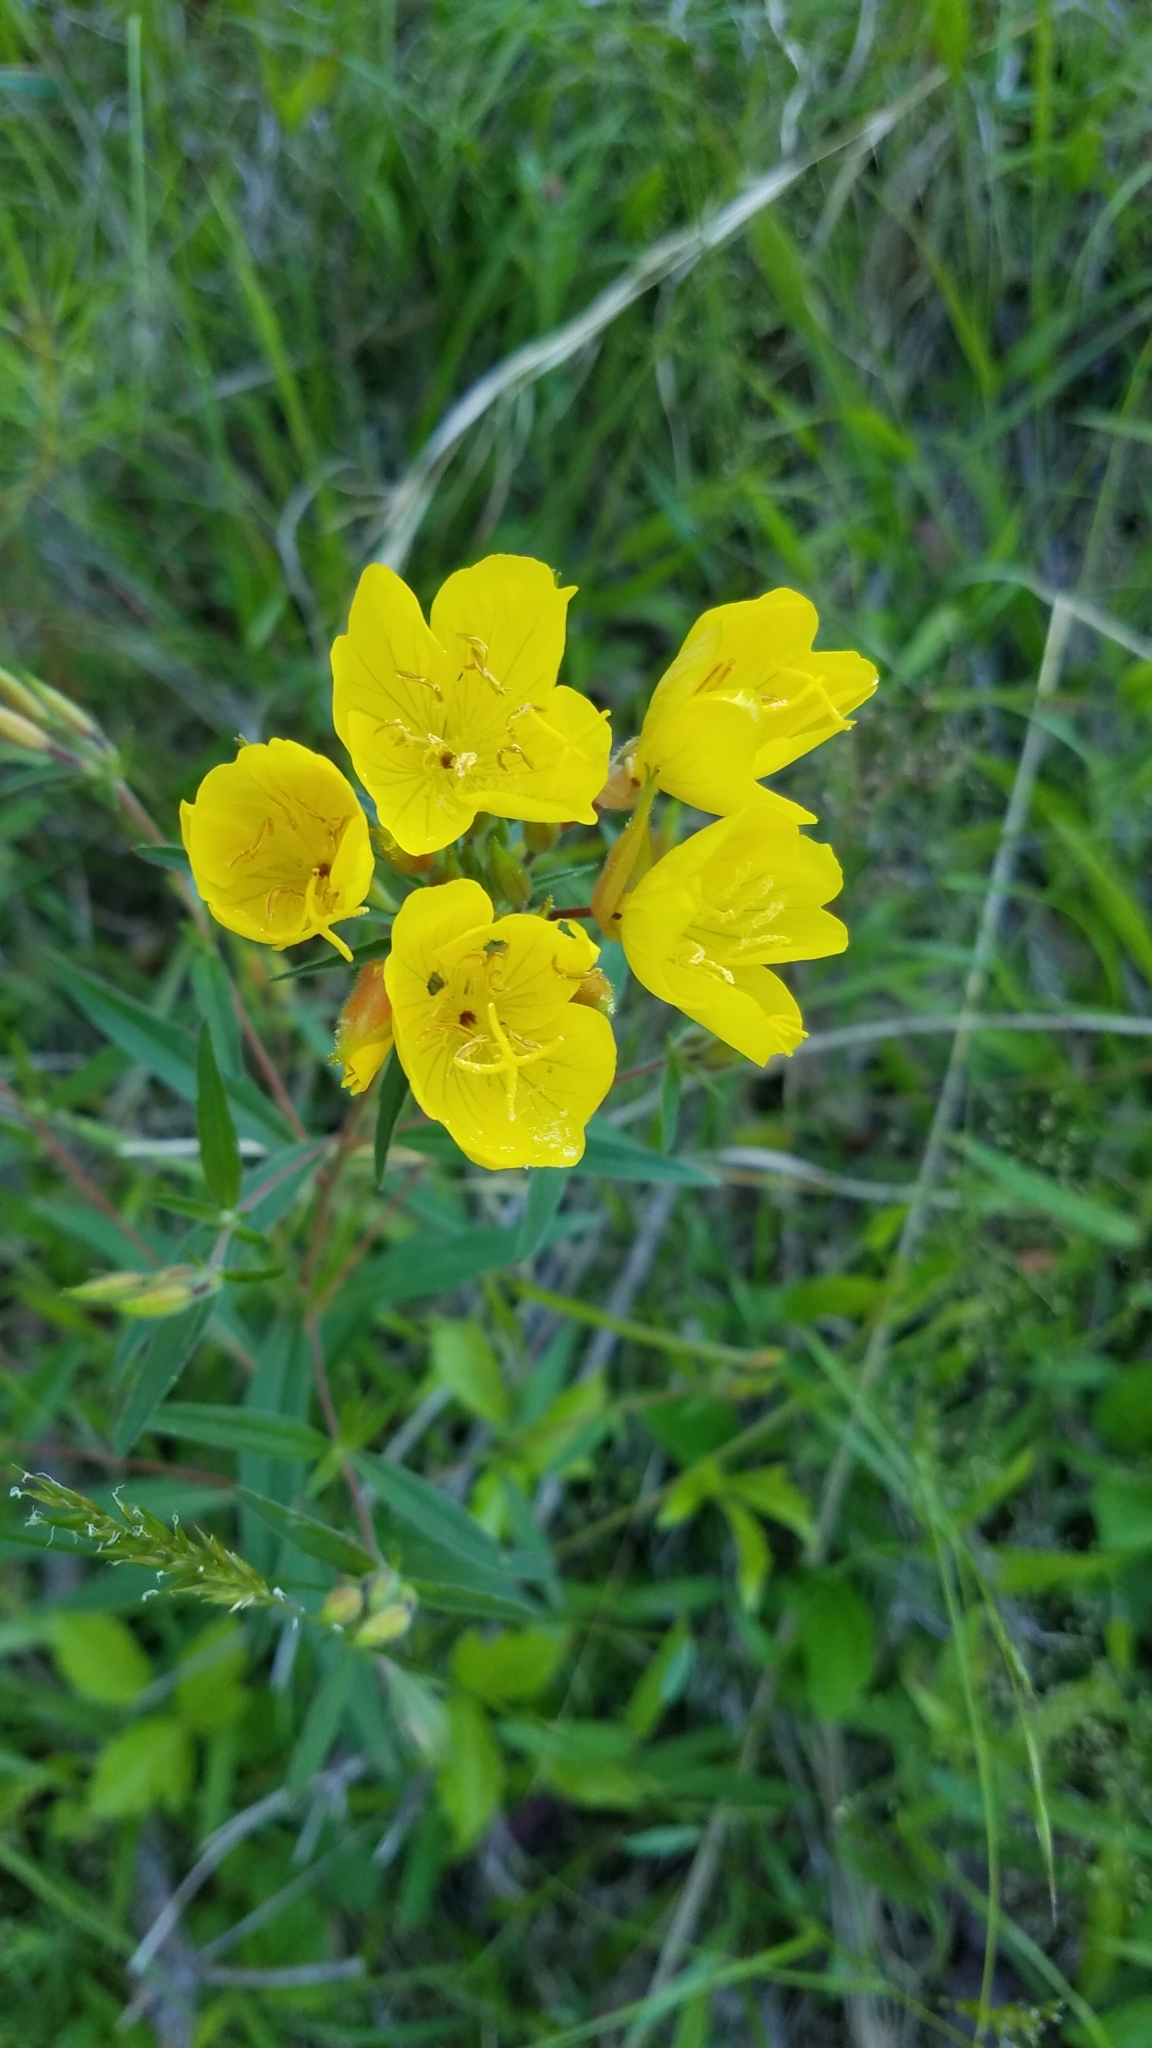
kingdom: Plantae
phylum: Tracheophyta
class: Magnoliopsida
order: Myrtales
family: Onagraceae
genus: Oenothera
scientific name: Oenothera fruticosa
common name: Southern sundrops
